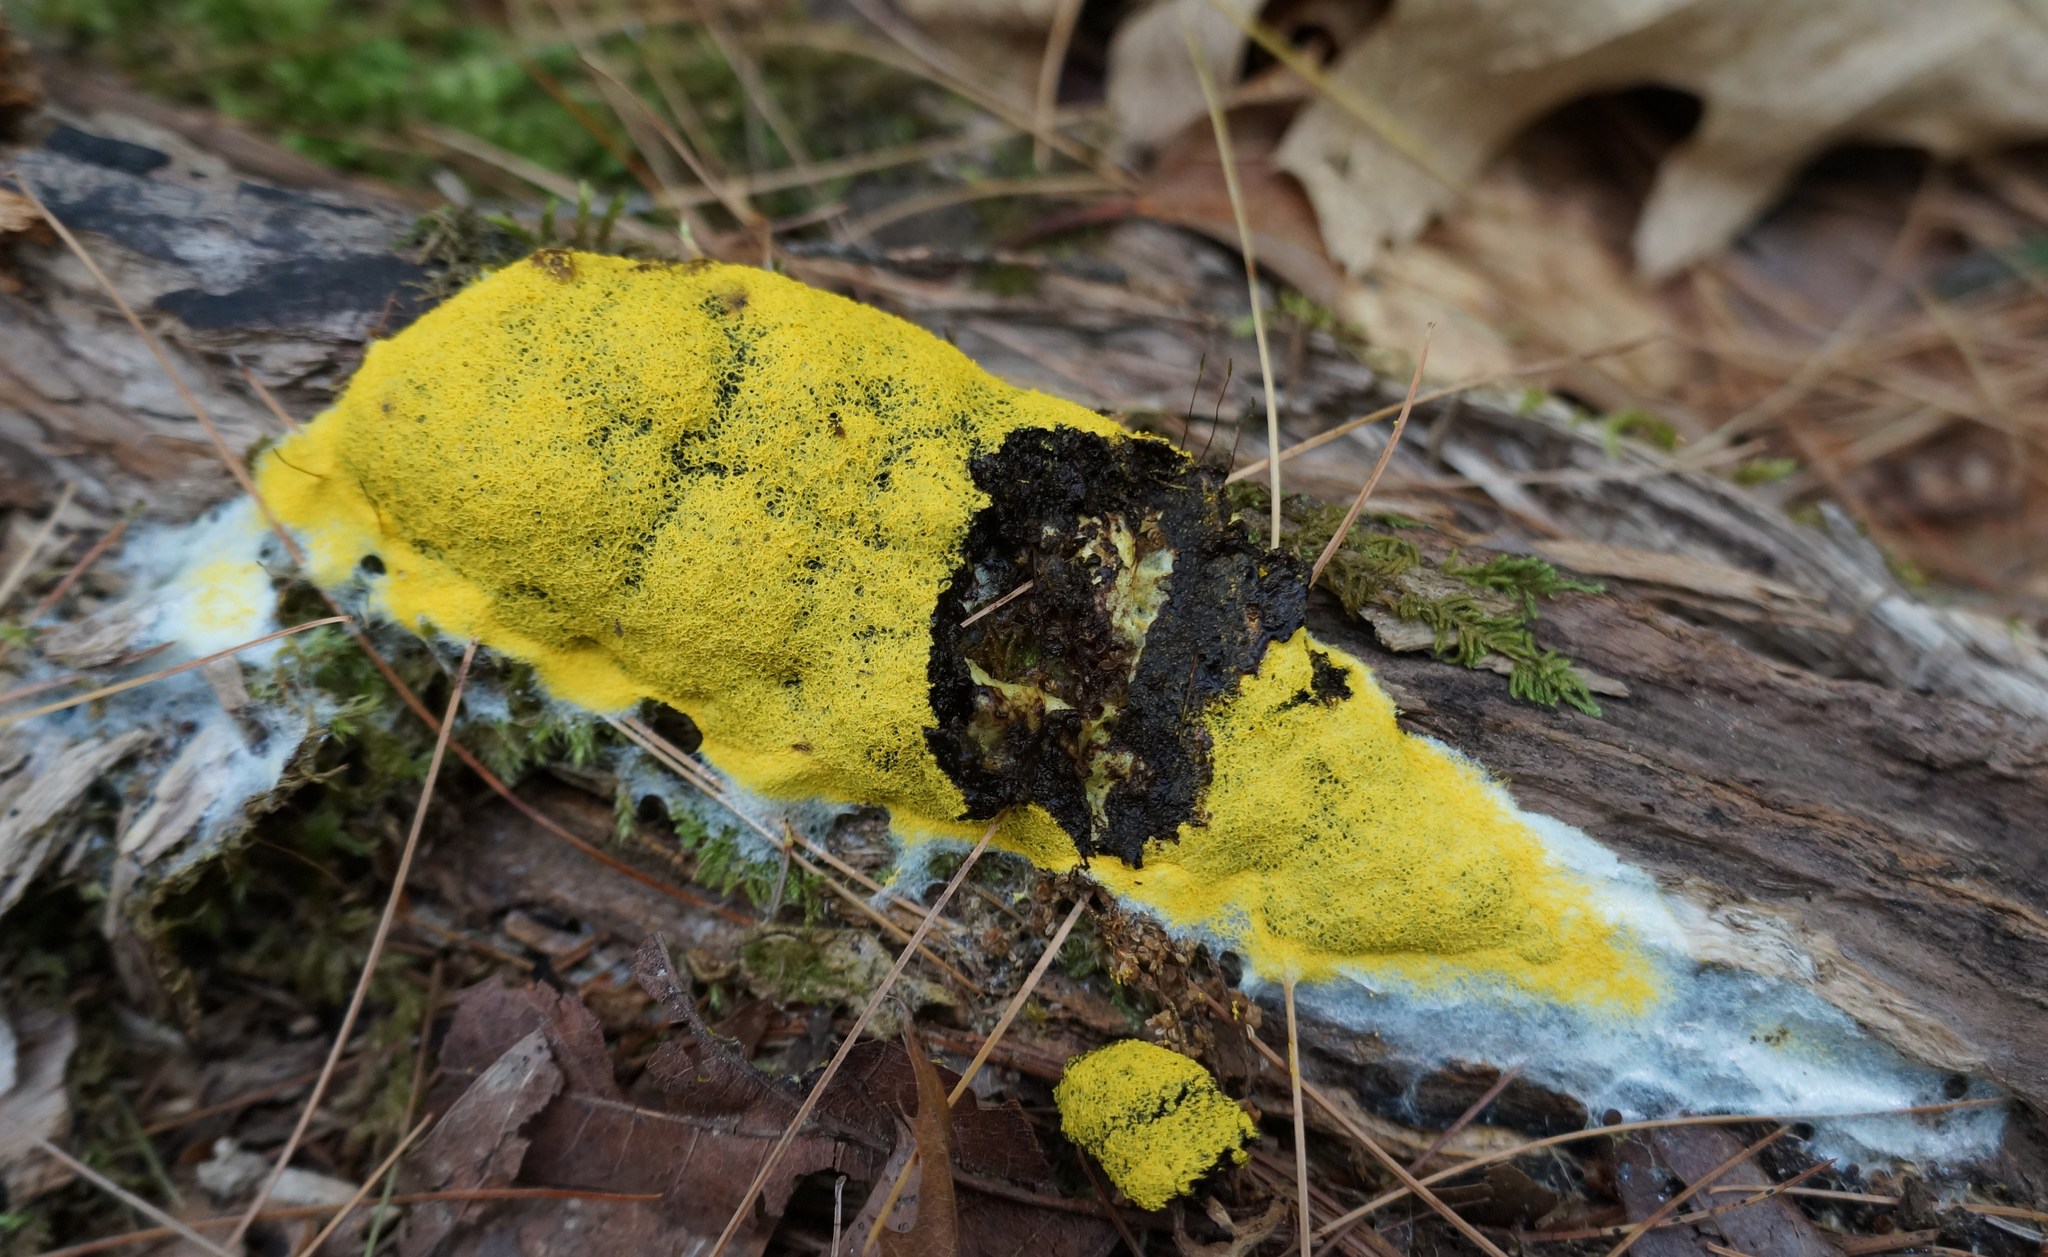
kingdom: Protozoa
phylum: Mycetozoa
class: Myxomycetes
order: Physarales
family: Physaraceae
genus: Fuligo
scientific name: Fuligo septica
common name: Dog vomit slime mold
